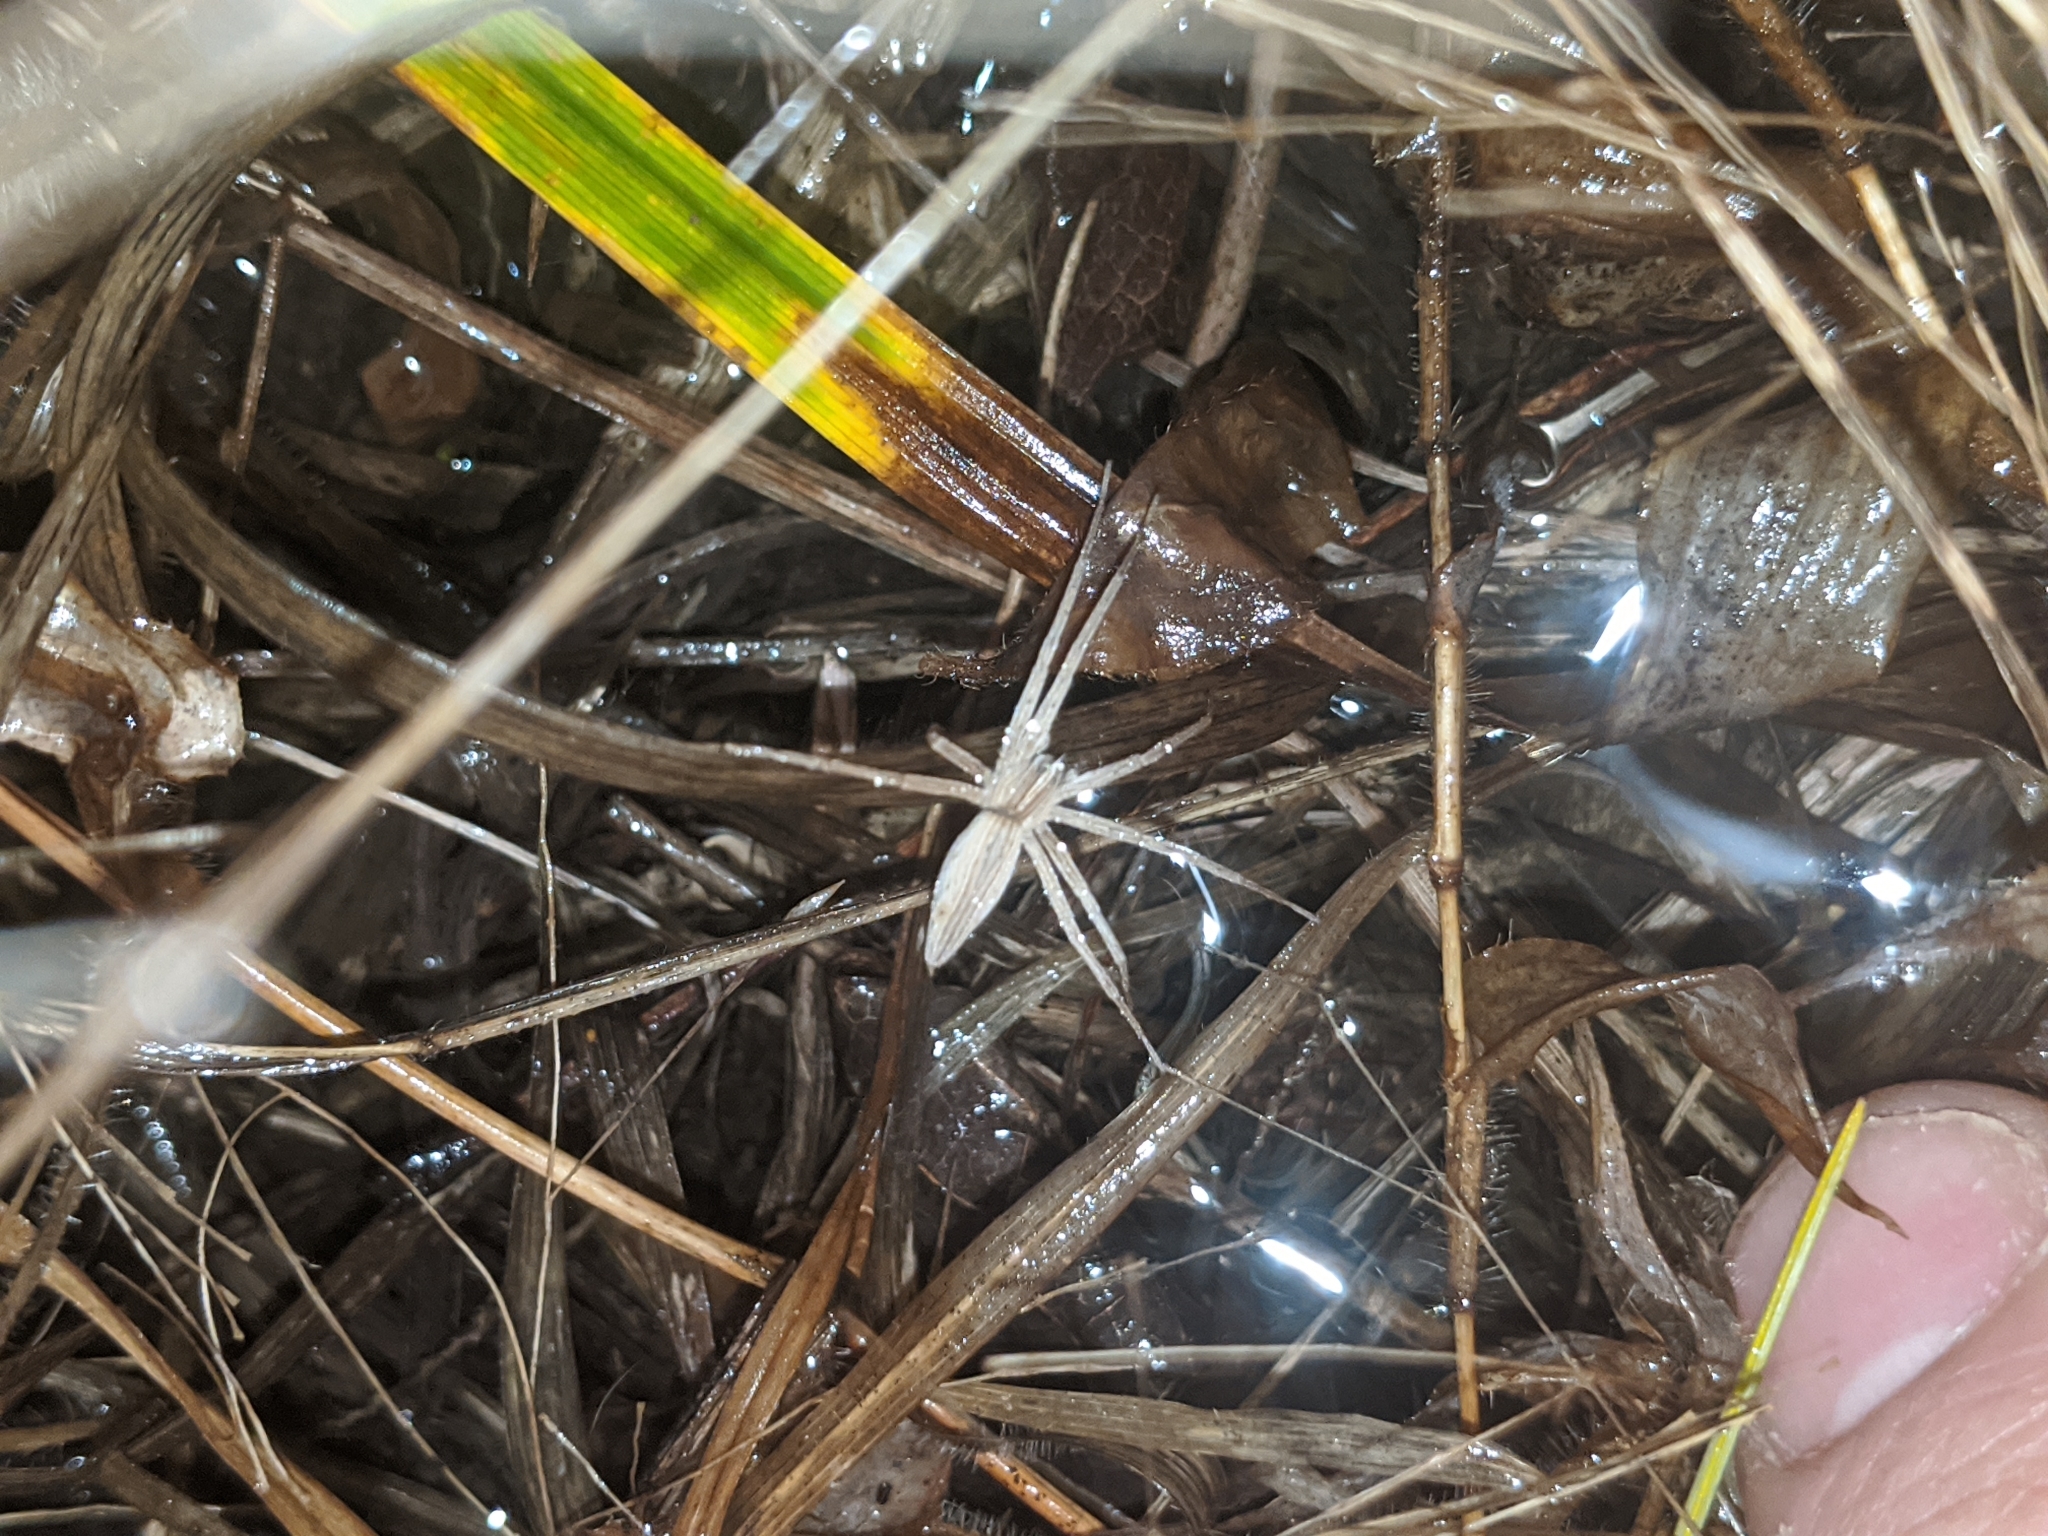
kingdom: Animalia
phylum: Arthropoda
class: Arachnida
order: Araneae
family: Pisauridae
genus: Pisaurina
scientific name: Pisaurina dubia
